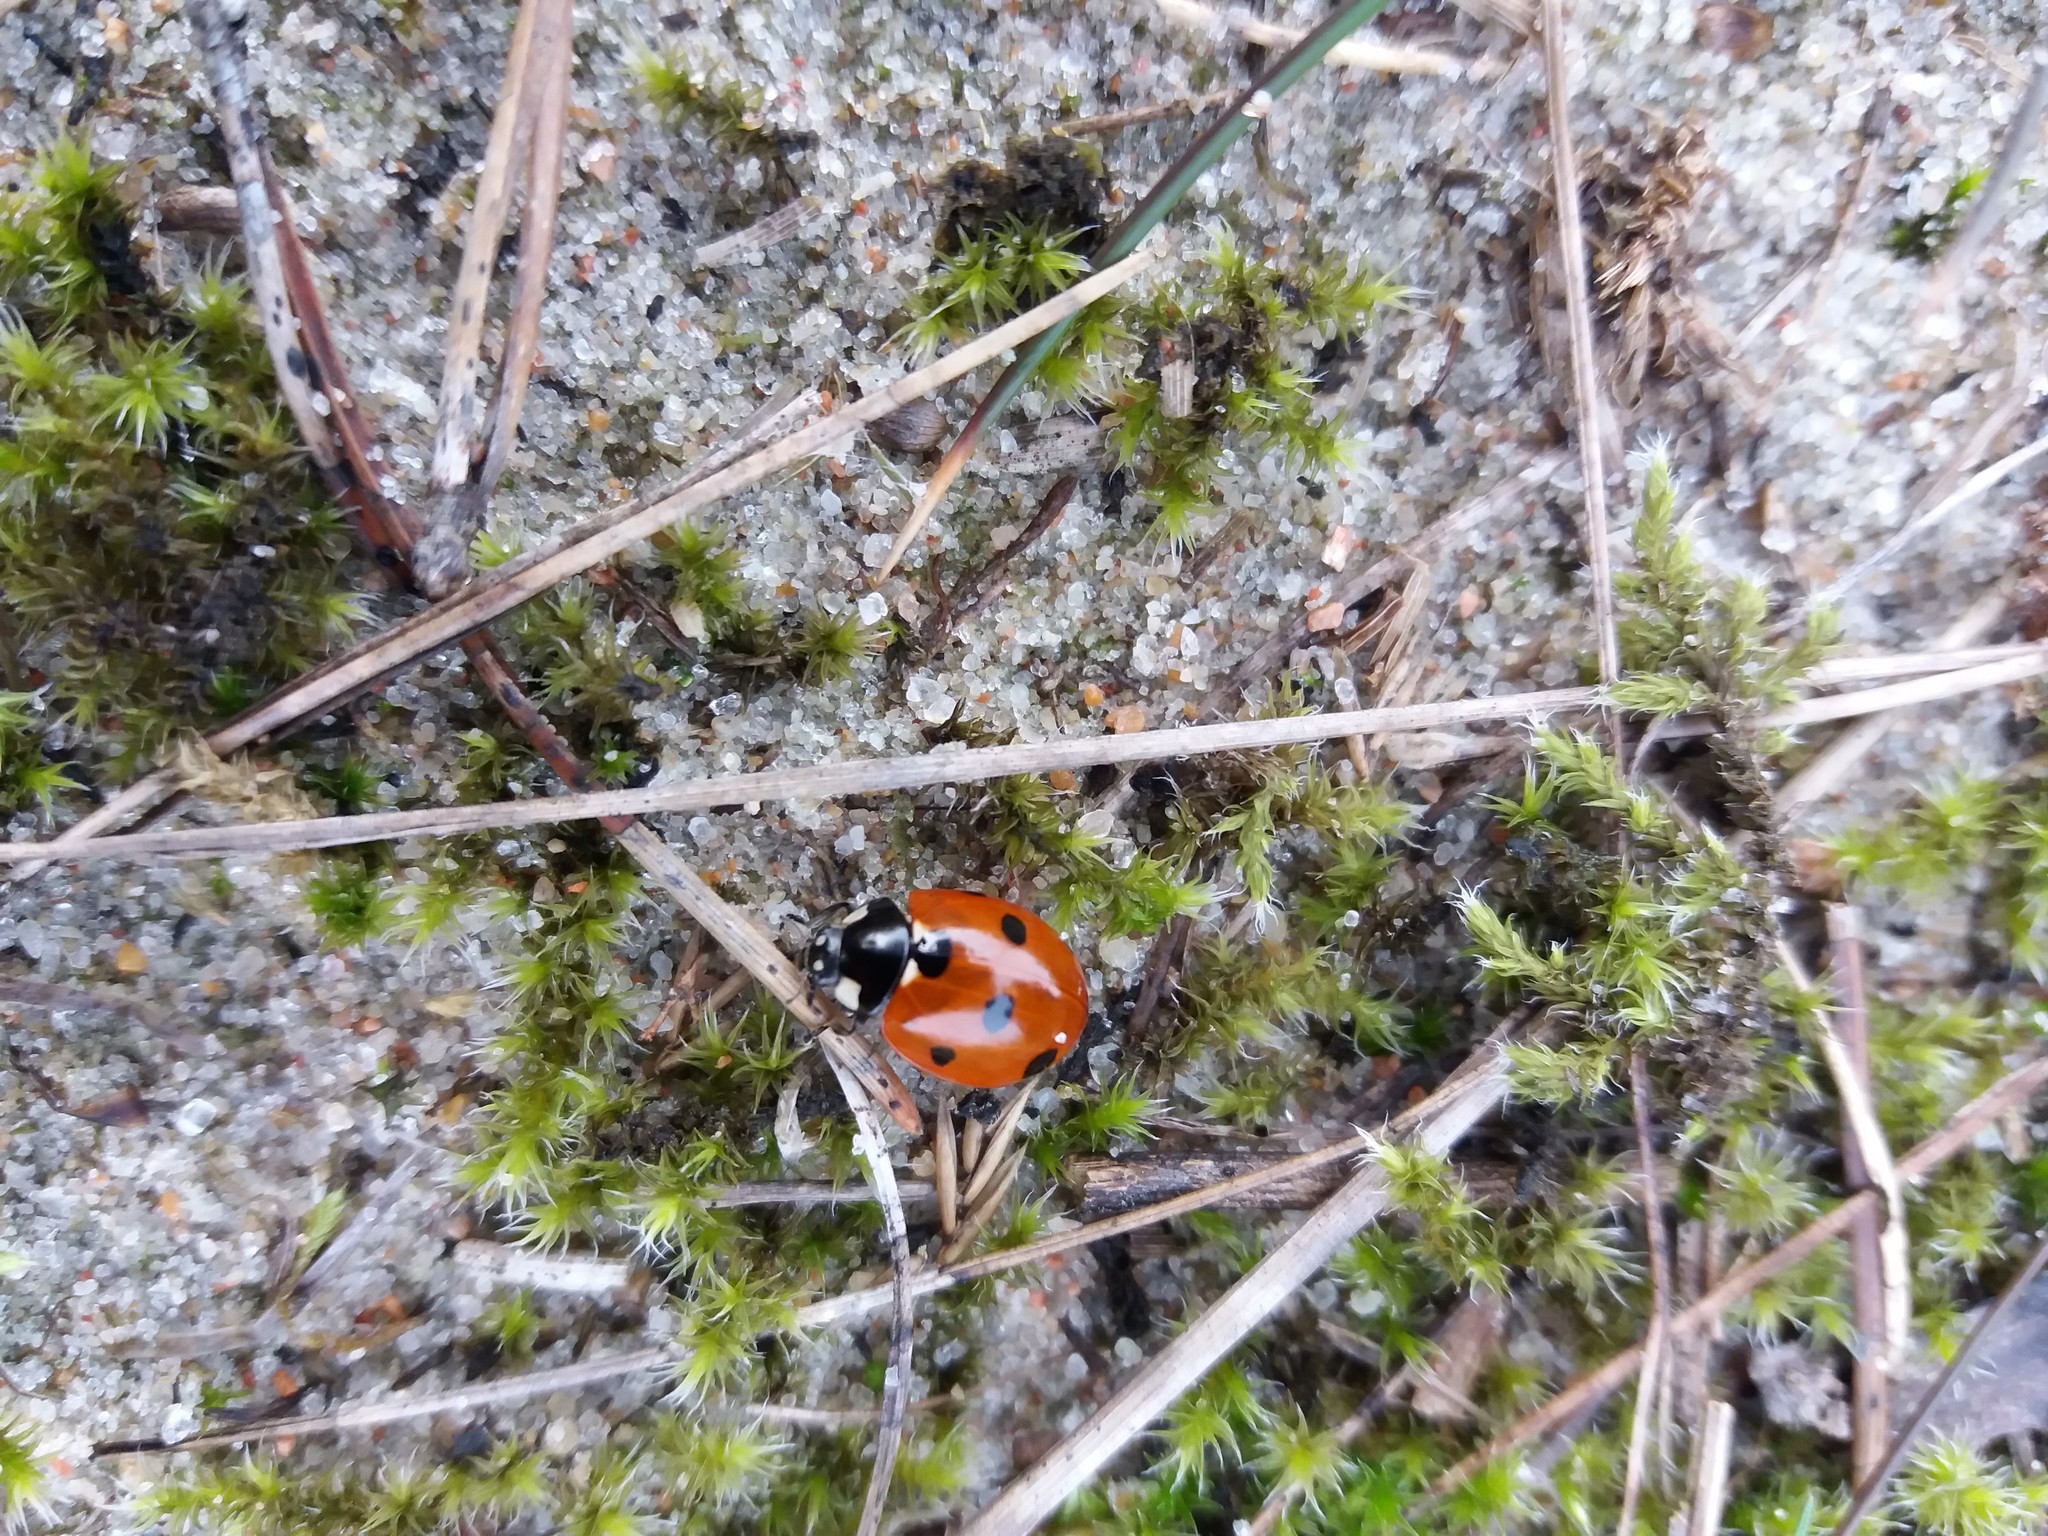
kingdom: Animalia
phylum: Arthropoda
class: Insecta
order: Coleoptera
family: Coccinellidae
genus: Coccinella
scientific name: Coccinella septempunctata
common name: Sevenspotted lady beetle
